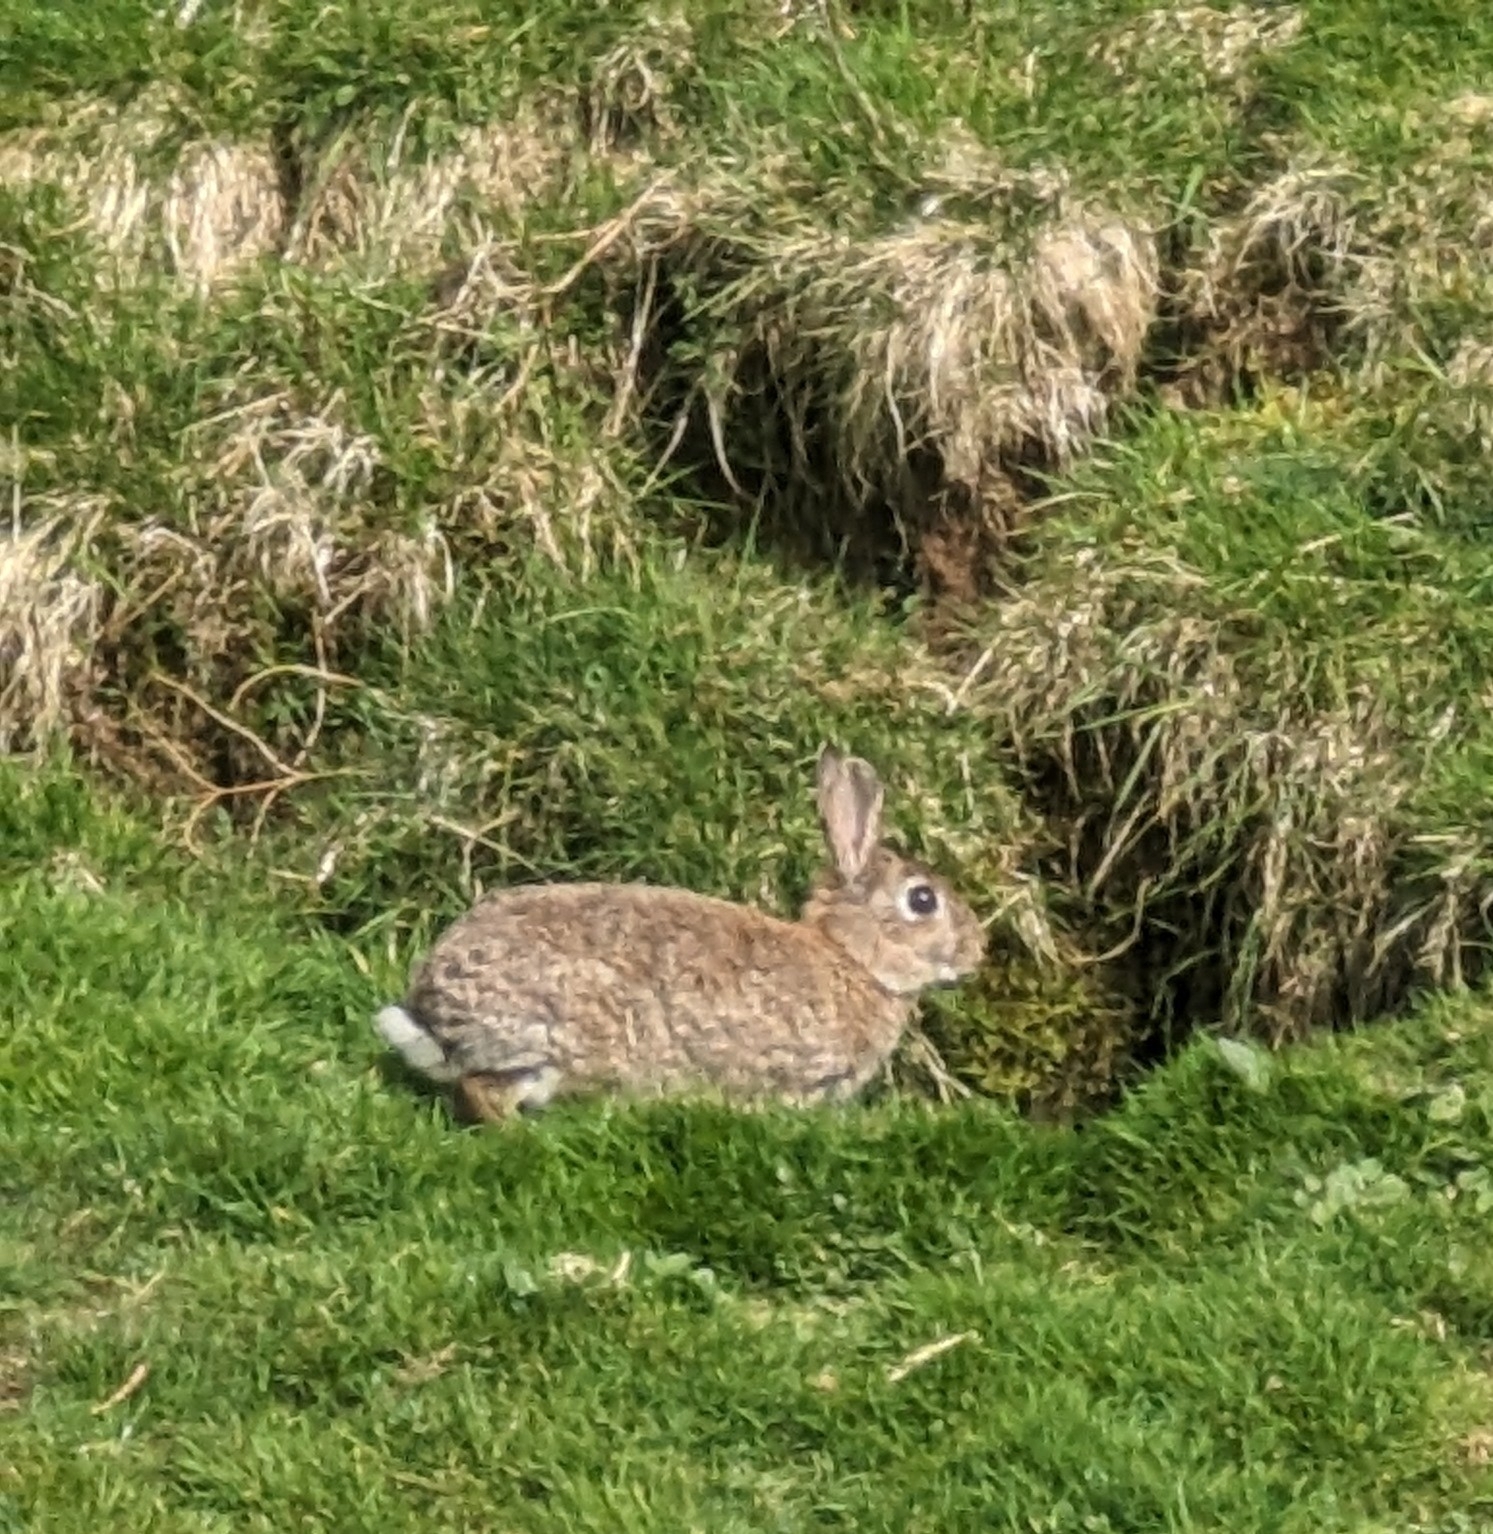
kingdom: Animalia
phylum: Chordata
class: Mammalia
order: Lagomorpha
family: Leporidae
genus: Oryctolagus
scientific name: Oryctolagus cuniculus
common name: European rabbit
